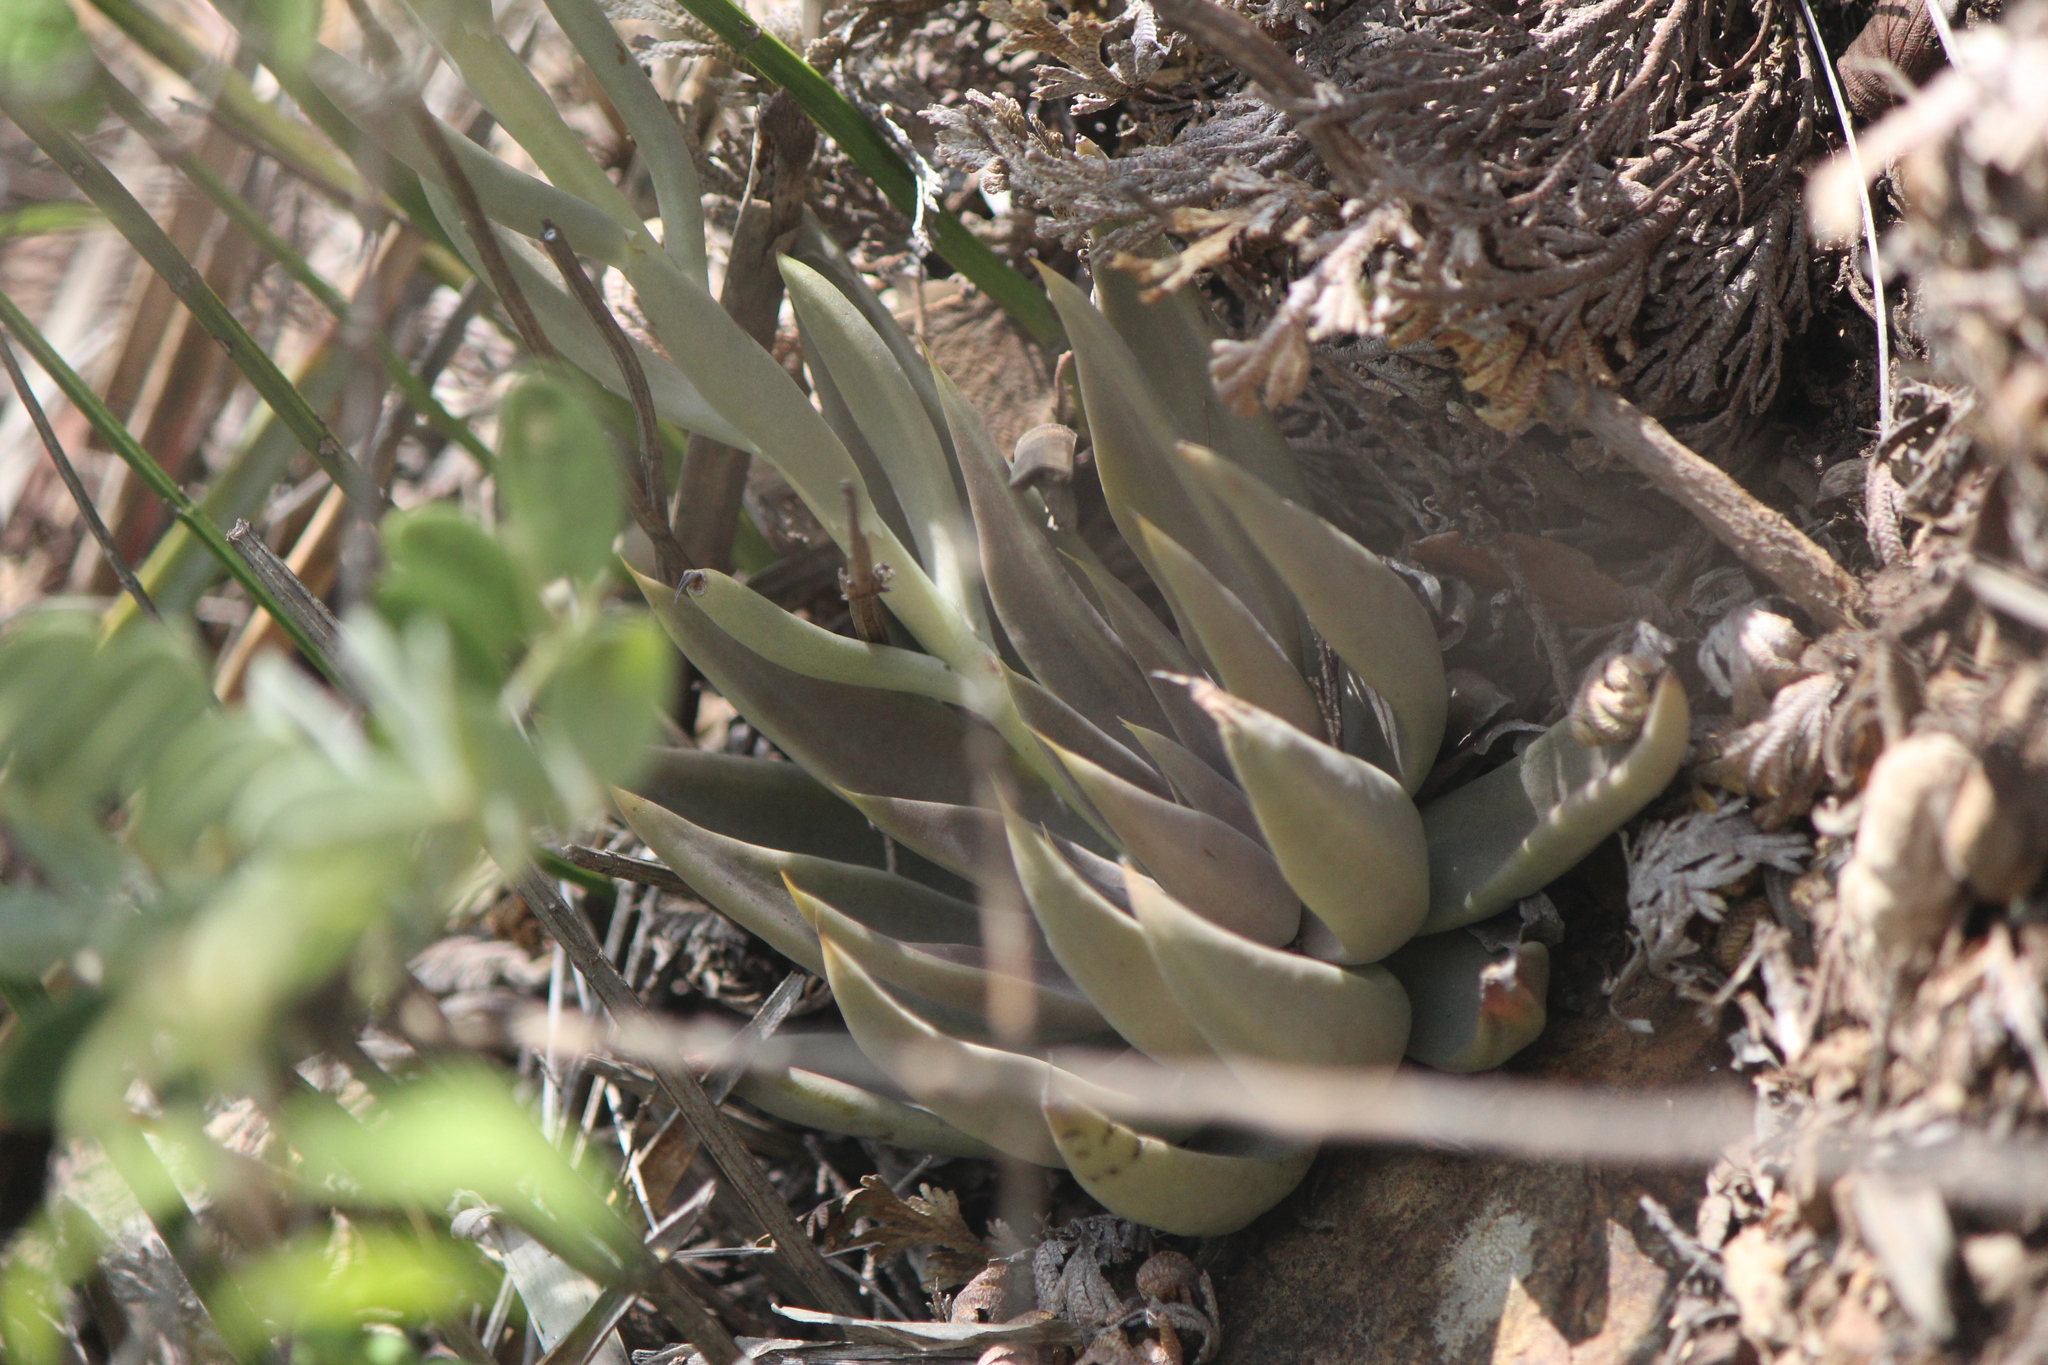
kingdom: Plantae
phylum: Tracheophyta
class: Magnoliopsida
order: Saxifragales
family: Crassulaceae
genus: Echeveria
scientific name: Echeveria bifida
